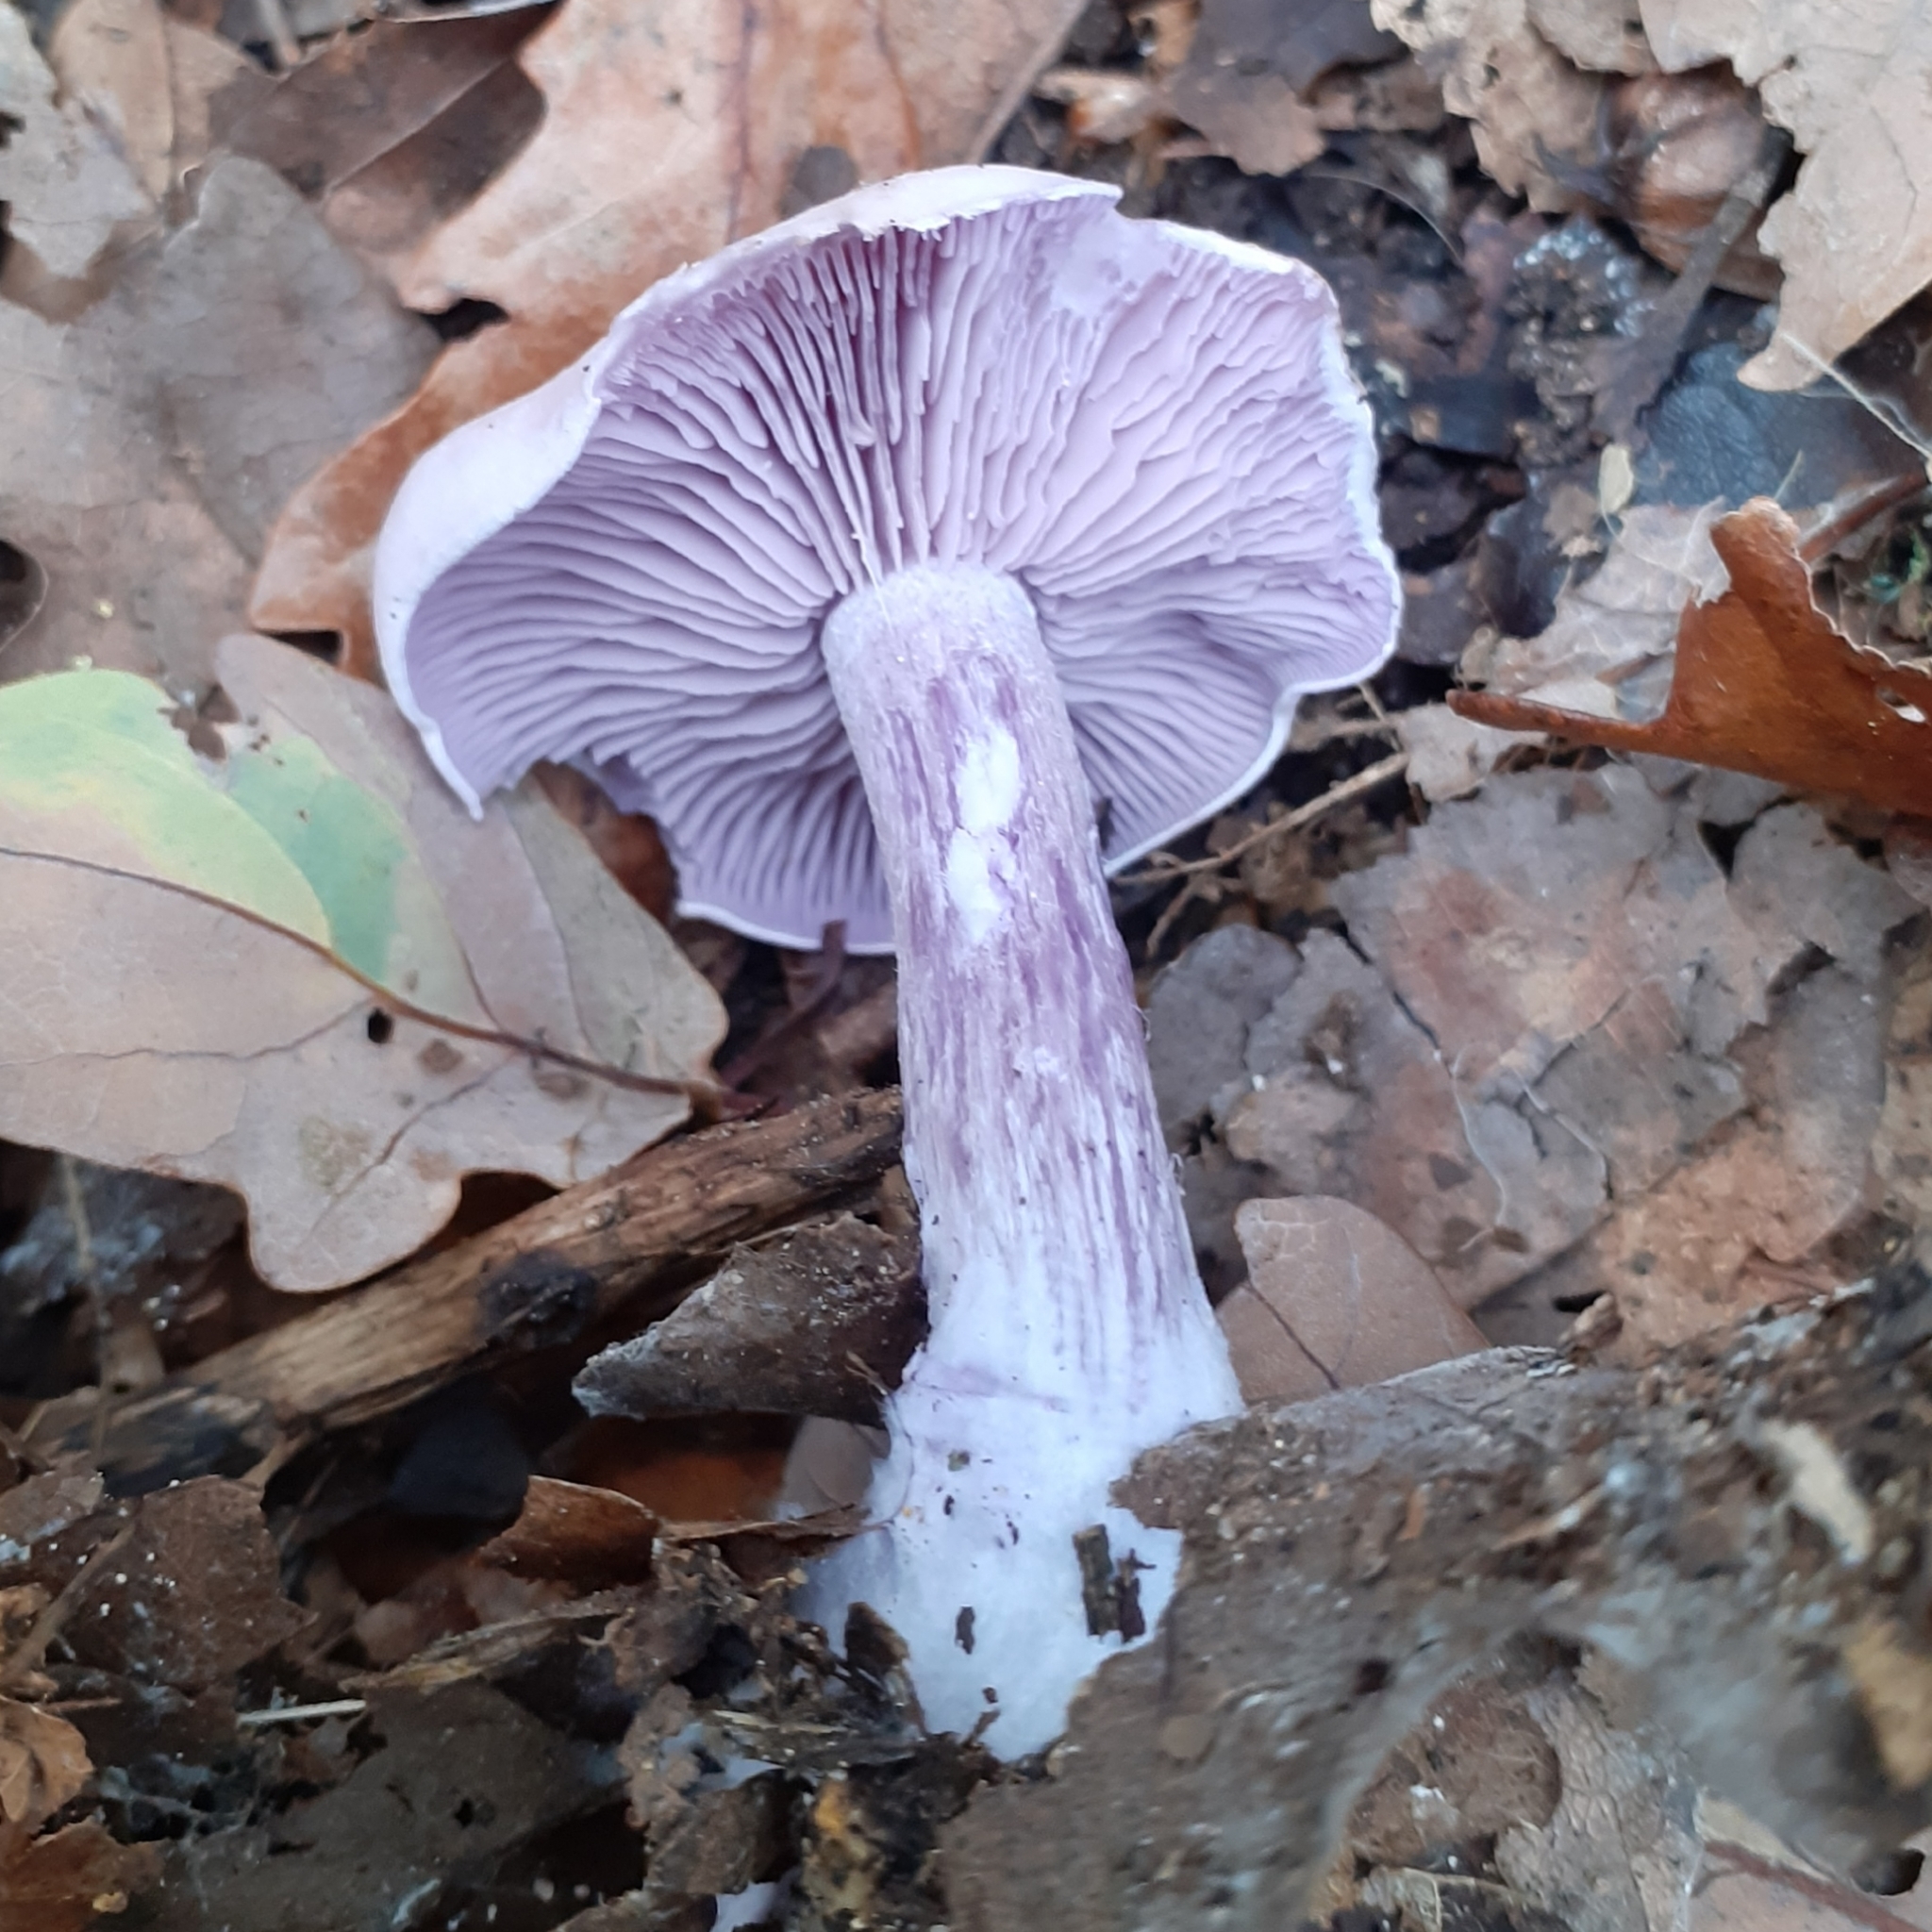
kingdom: Fungi
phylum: Basidiomycota
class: Agaricomycetes
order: Agaricales
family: Tricholomataceae
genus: Collybia
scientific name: Collybia
